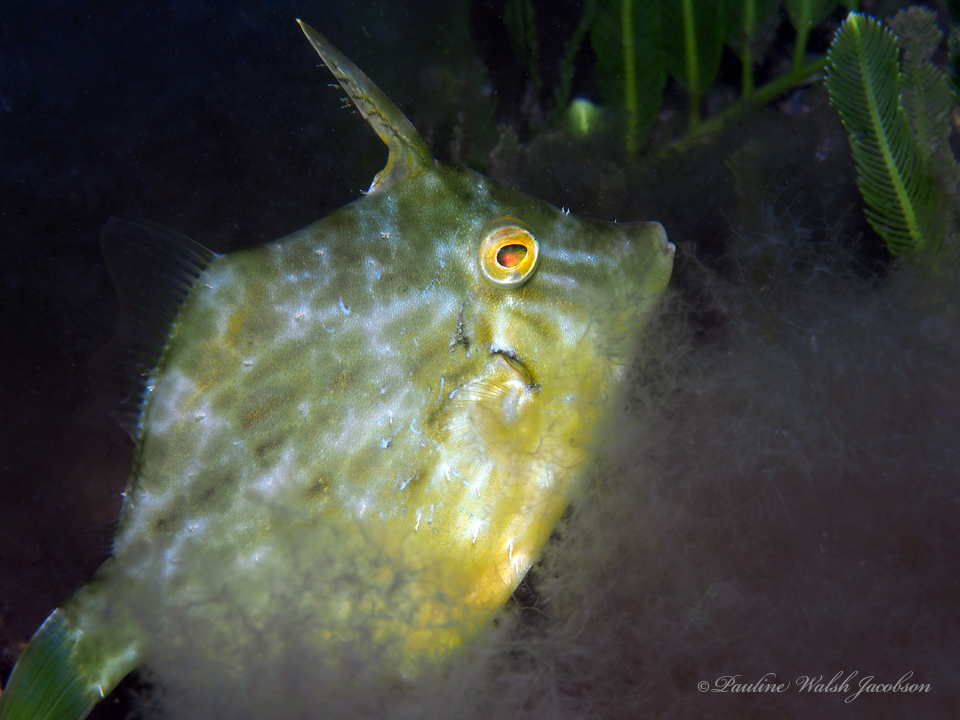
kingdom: Animalia
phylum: Chordata
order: Tetraodontiformes
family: Monacanthidae
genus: Stephanolepis
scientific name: Stephanolepis hispidus
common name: Planehead filefish
